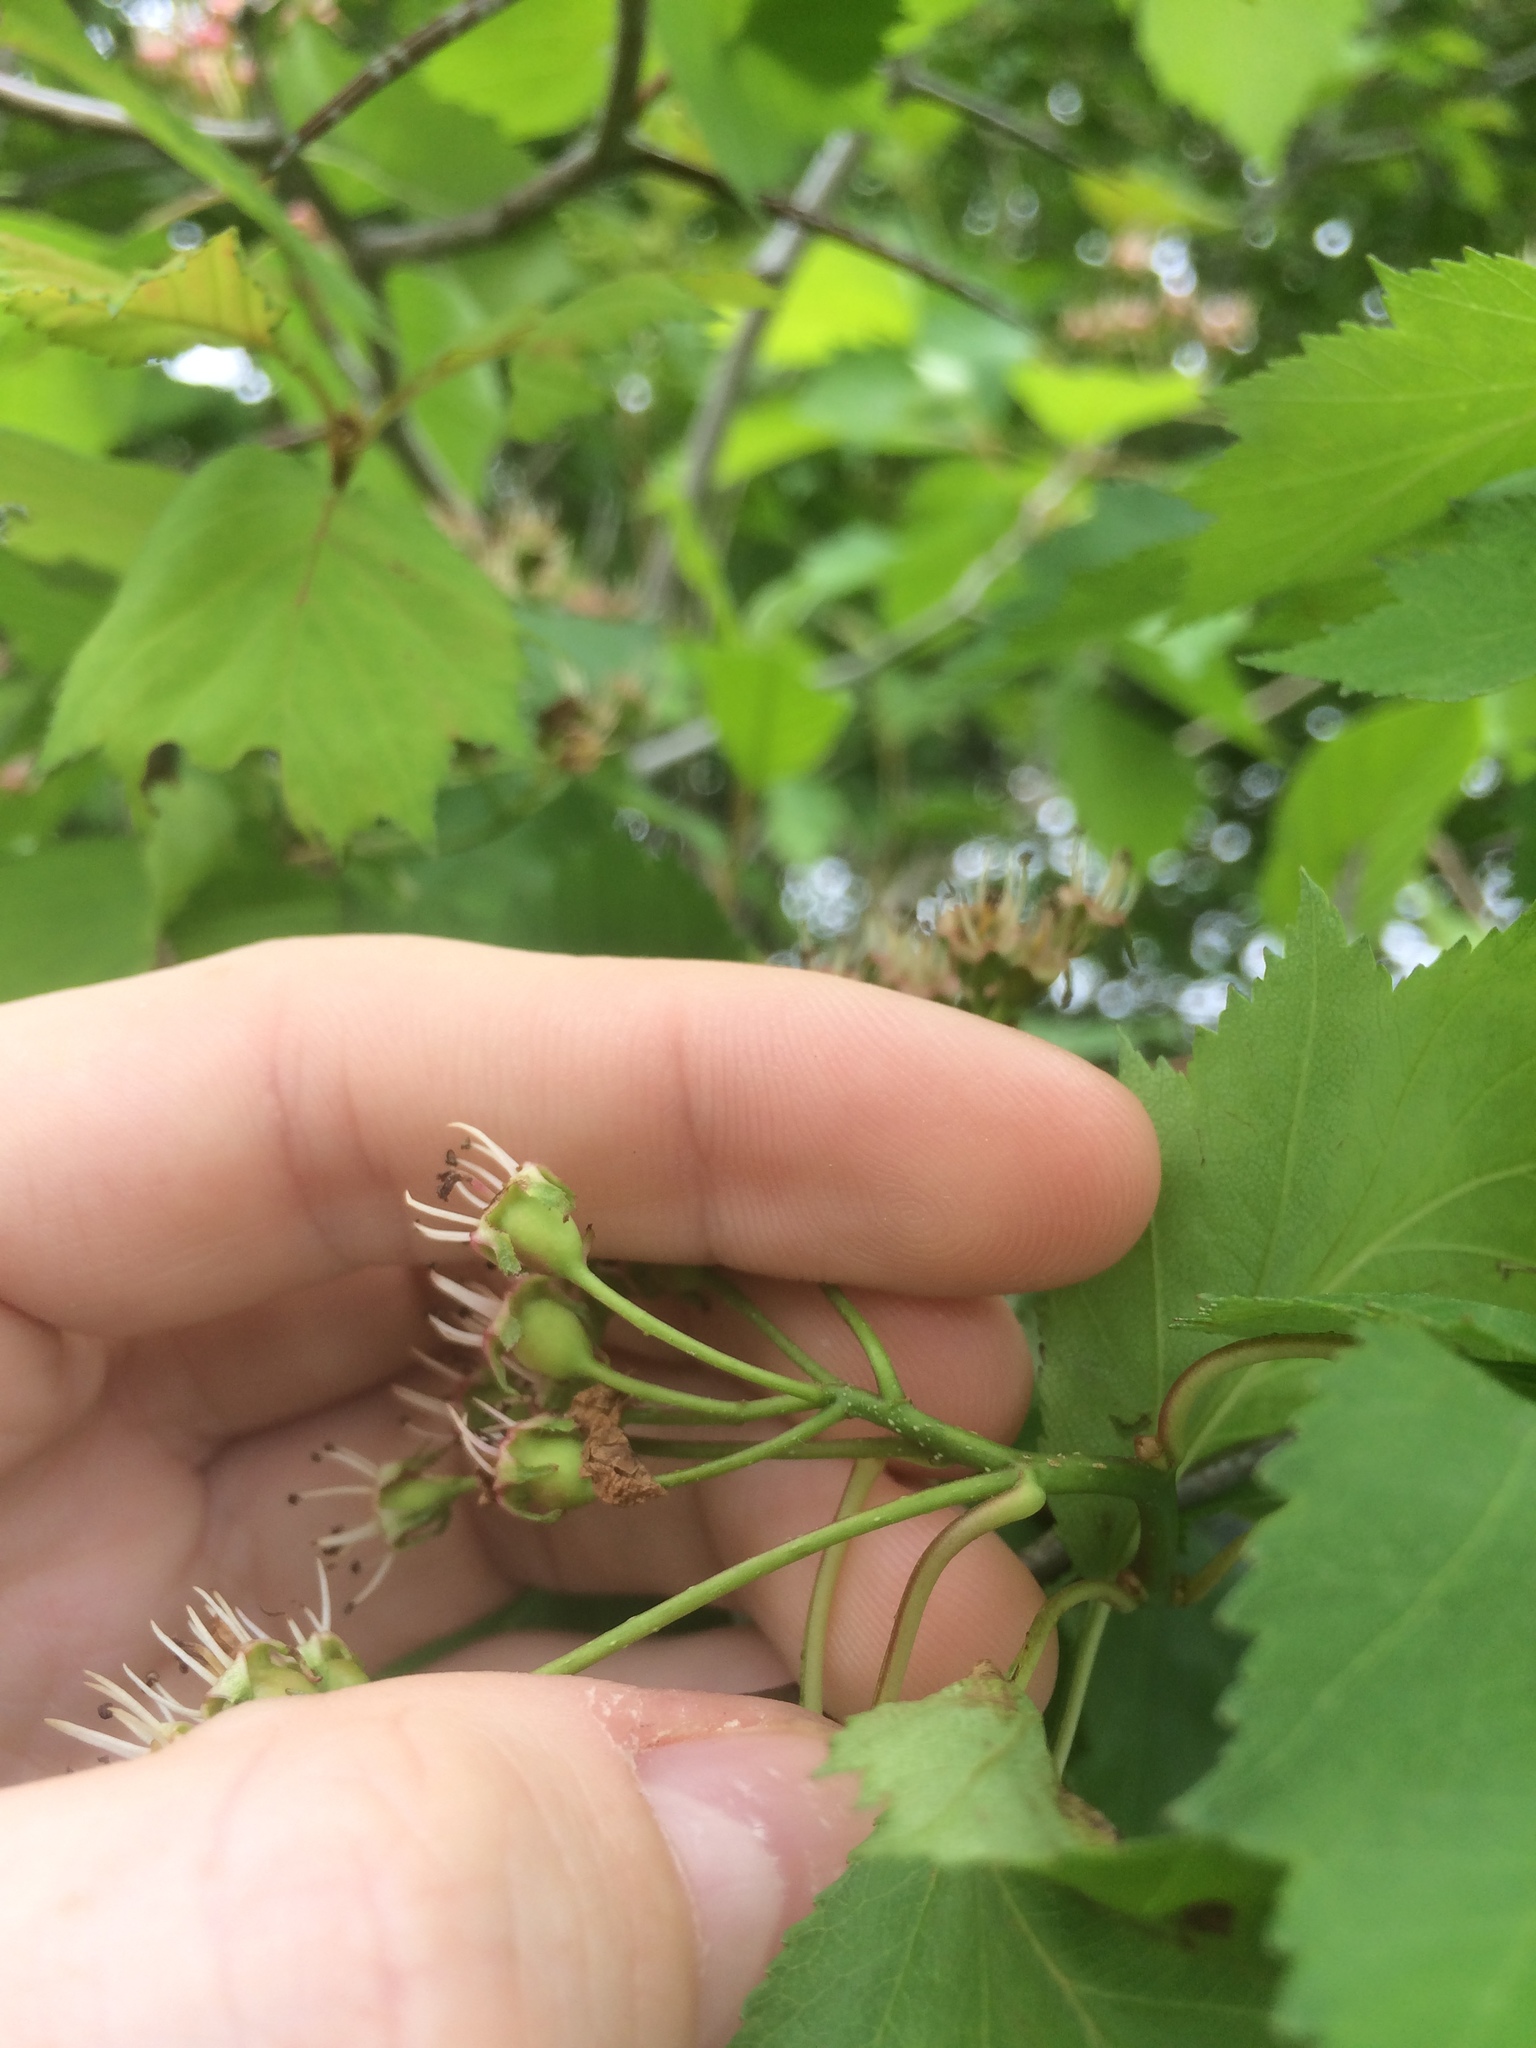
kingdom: Plantae
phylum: Tracheophyta
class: Magnoliopsida
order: Rosales
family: Rosaceae
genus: Crataegus
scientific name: Crataegus macrosperma
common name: Variable hawthorn
